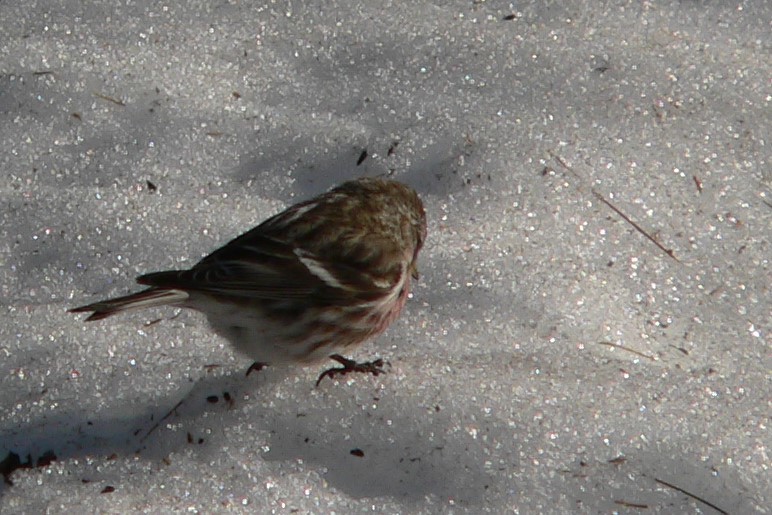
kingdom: Animalia
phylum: Chordata
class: Aves
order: Passeriformes
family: Fringillidae
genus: Acanthis
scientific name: Acanthis flammea
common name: Common redpoll
